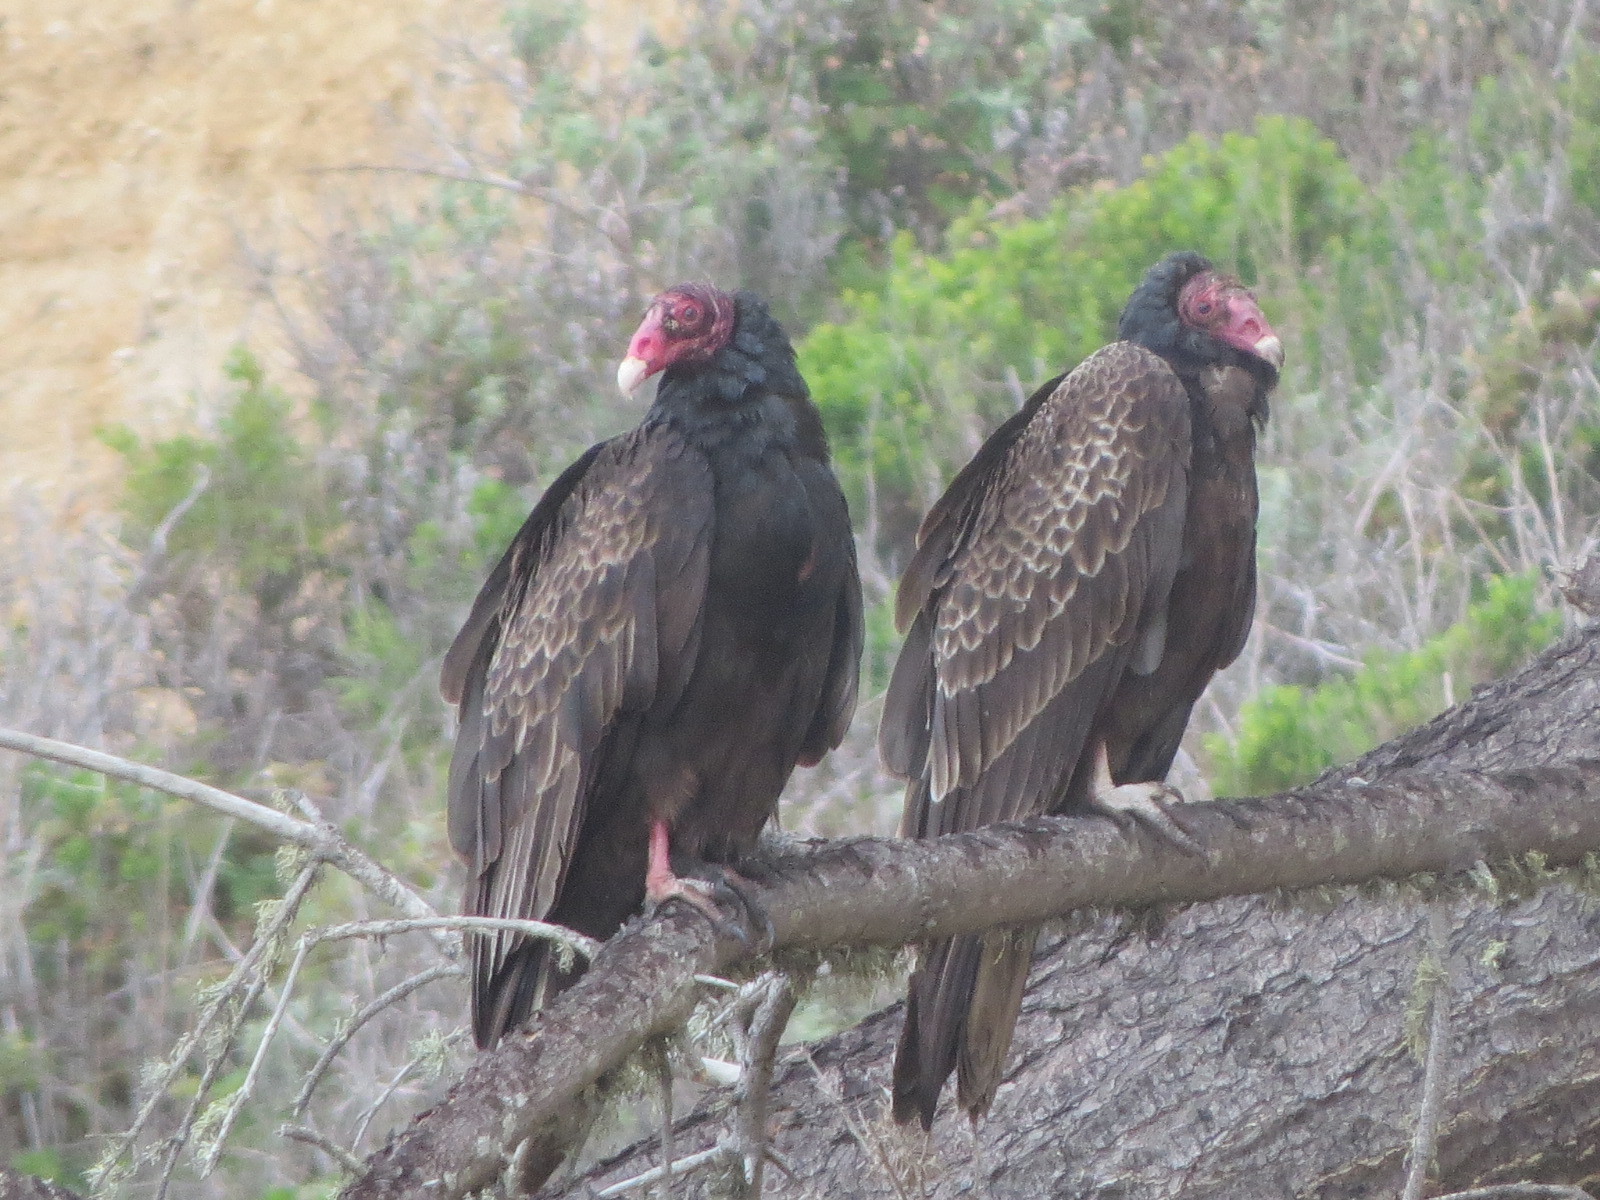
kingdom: Animalia
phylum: Chordata
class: Aves
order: Accipitriformes
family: Cathartidae
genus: Cathartes
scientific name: Cathartes aura
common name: Turkey vulture
